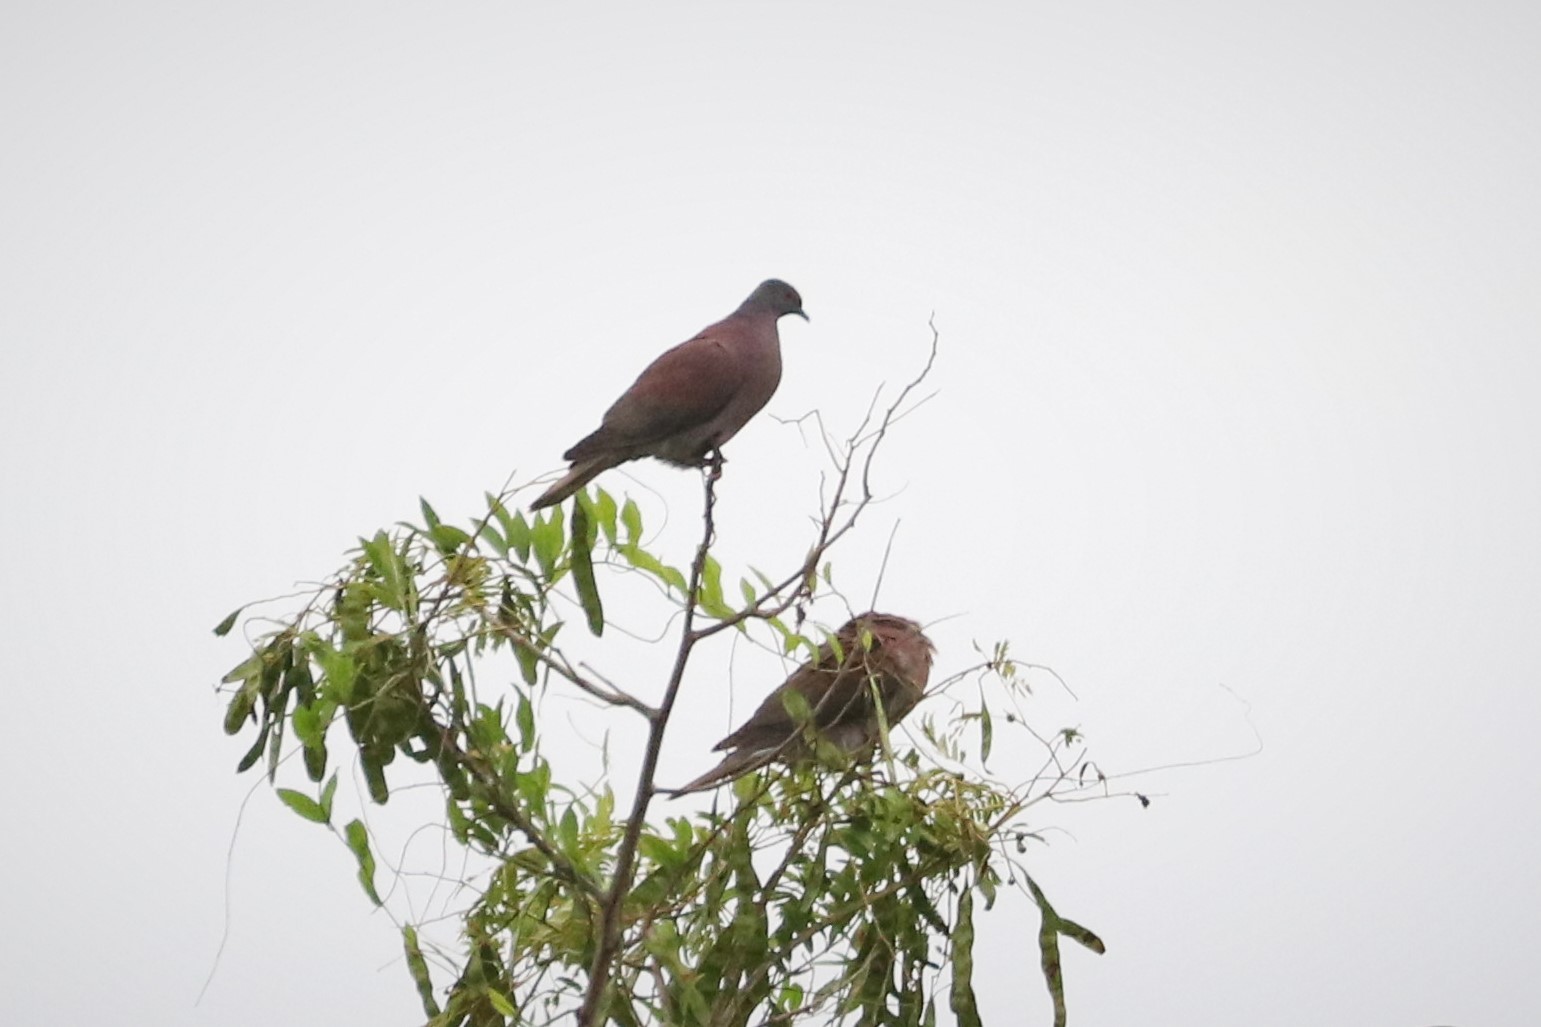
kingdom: Animalia
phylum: Chordata
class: Aves
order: Columbiformes
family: Columbidae
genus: Patagioenas
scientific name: Patagioenas cayennensis
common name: Pale-vented pigeon
